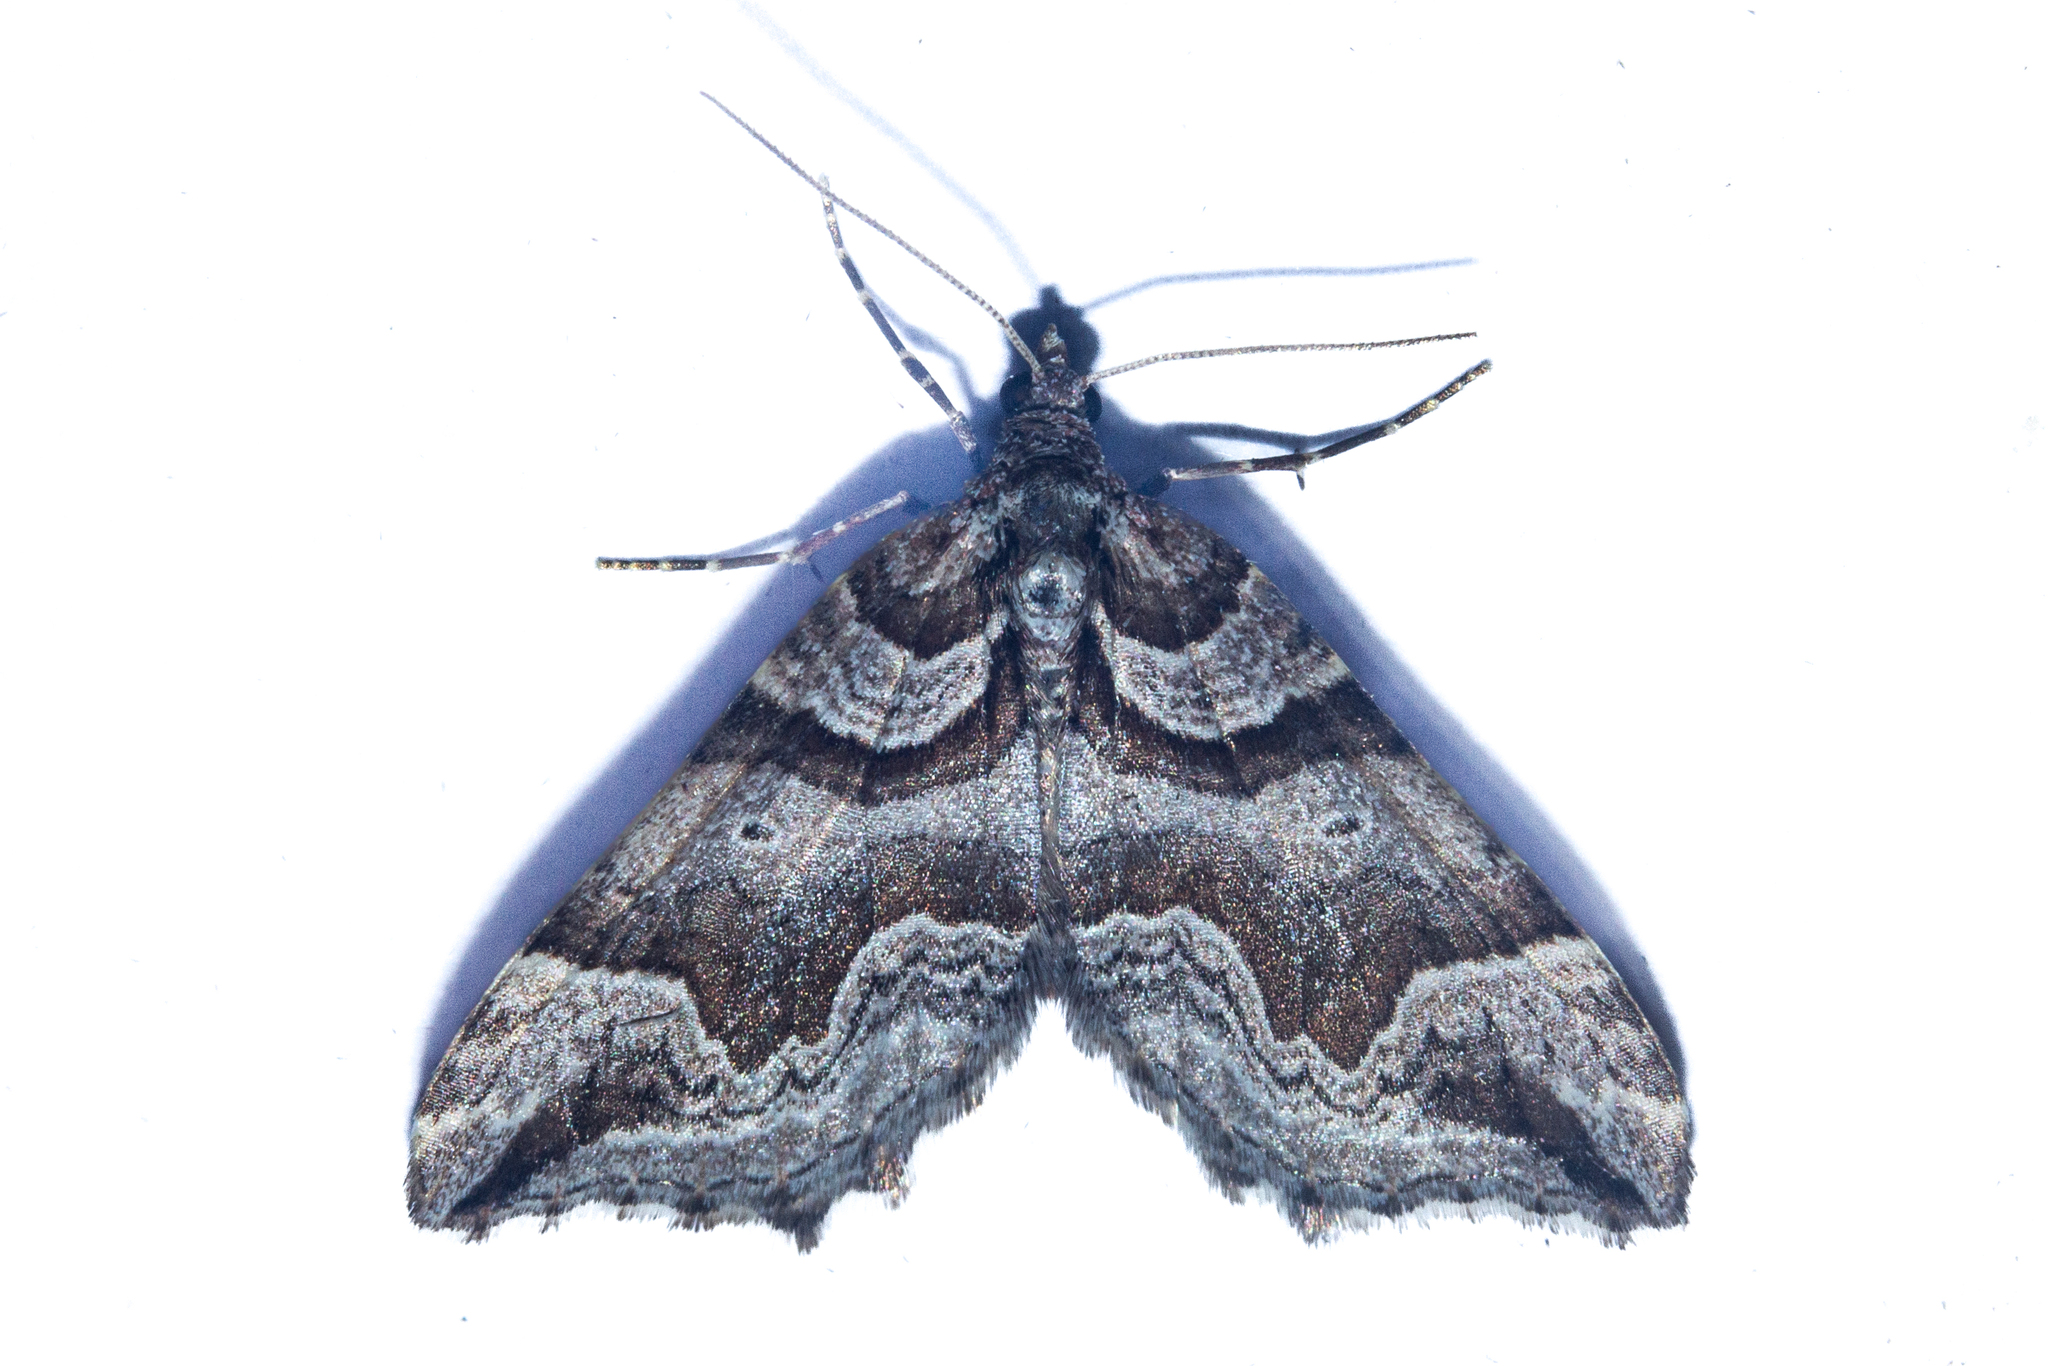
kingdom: Animalia
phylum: Arthropoda
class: Insecta
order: Lepidoptera
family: Geometridae
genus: Helastia
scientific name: Helastia angusta
